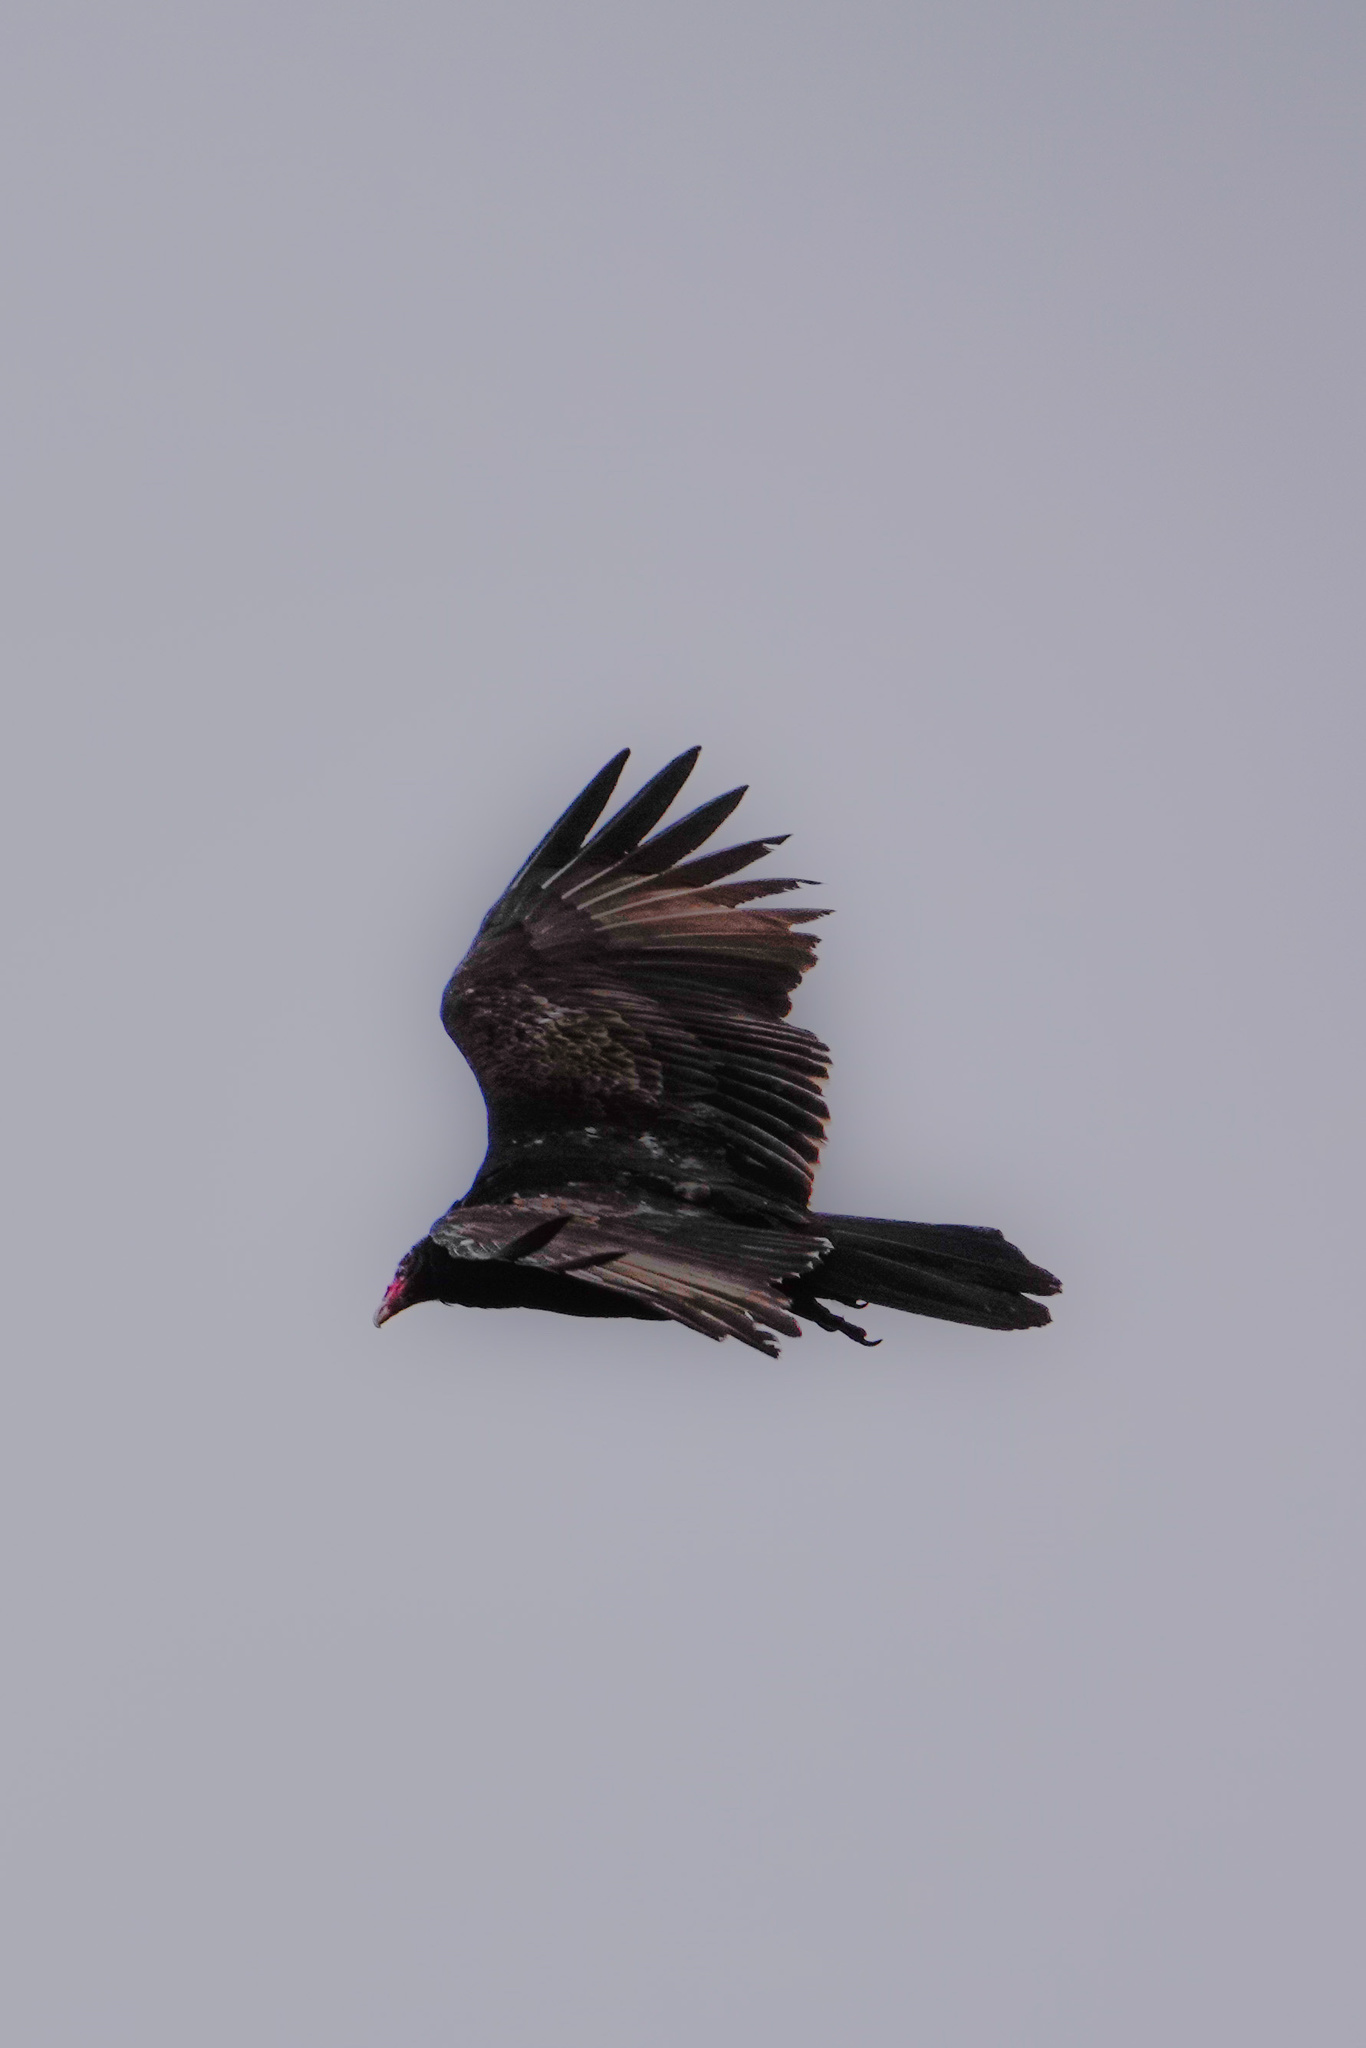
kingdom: Animalia
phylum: Chordata
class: Aves
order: Accipitriformes
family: Cathartidae
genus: Cathartes
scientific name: Cathartes aura
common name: Turkey vulture
